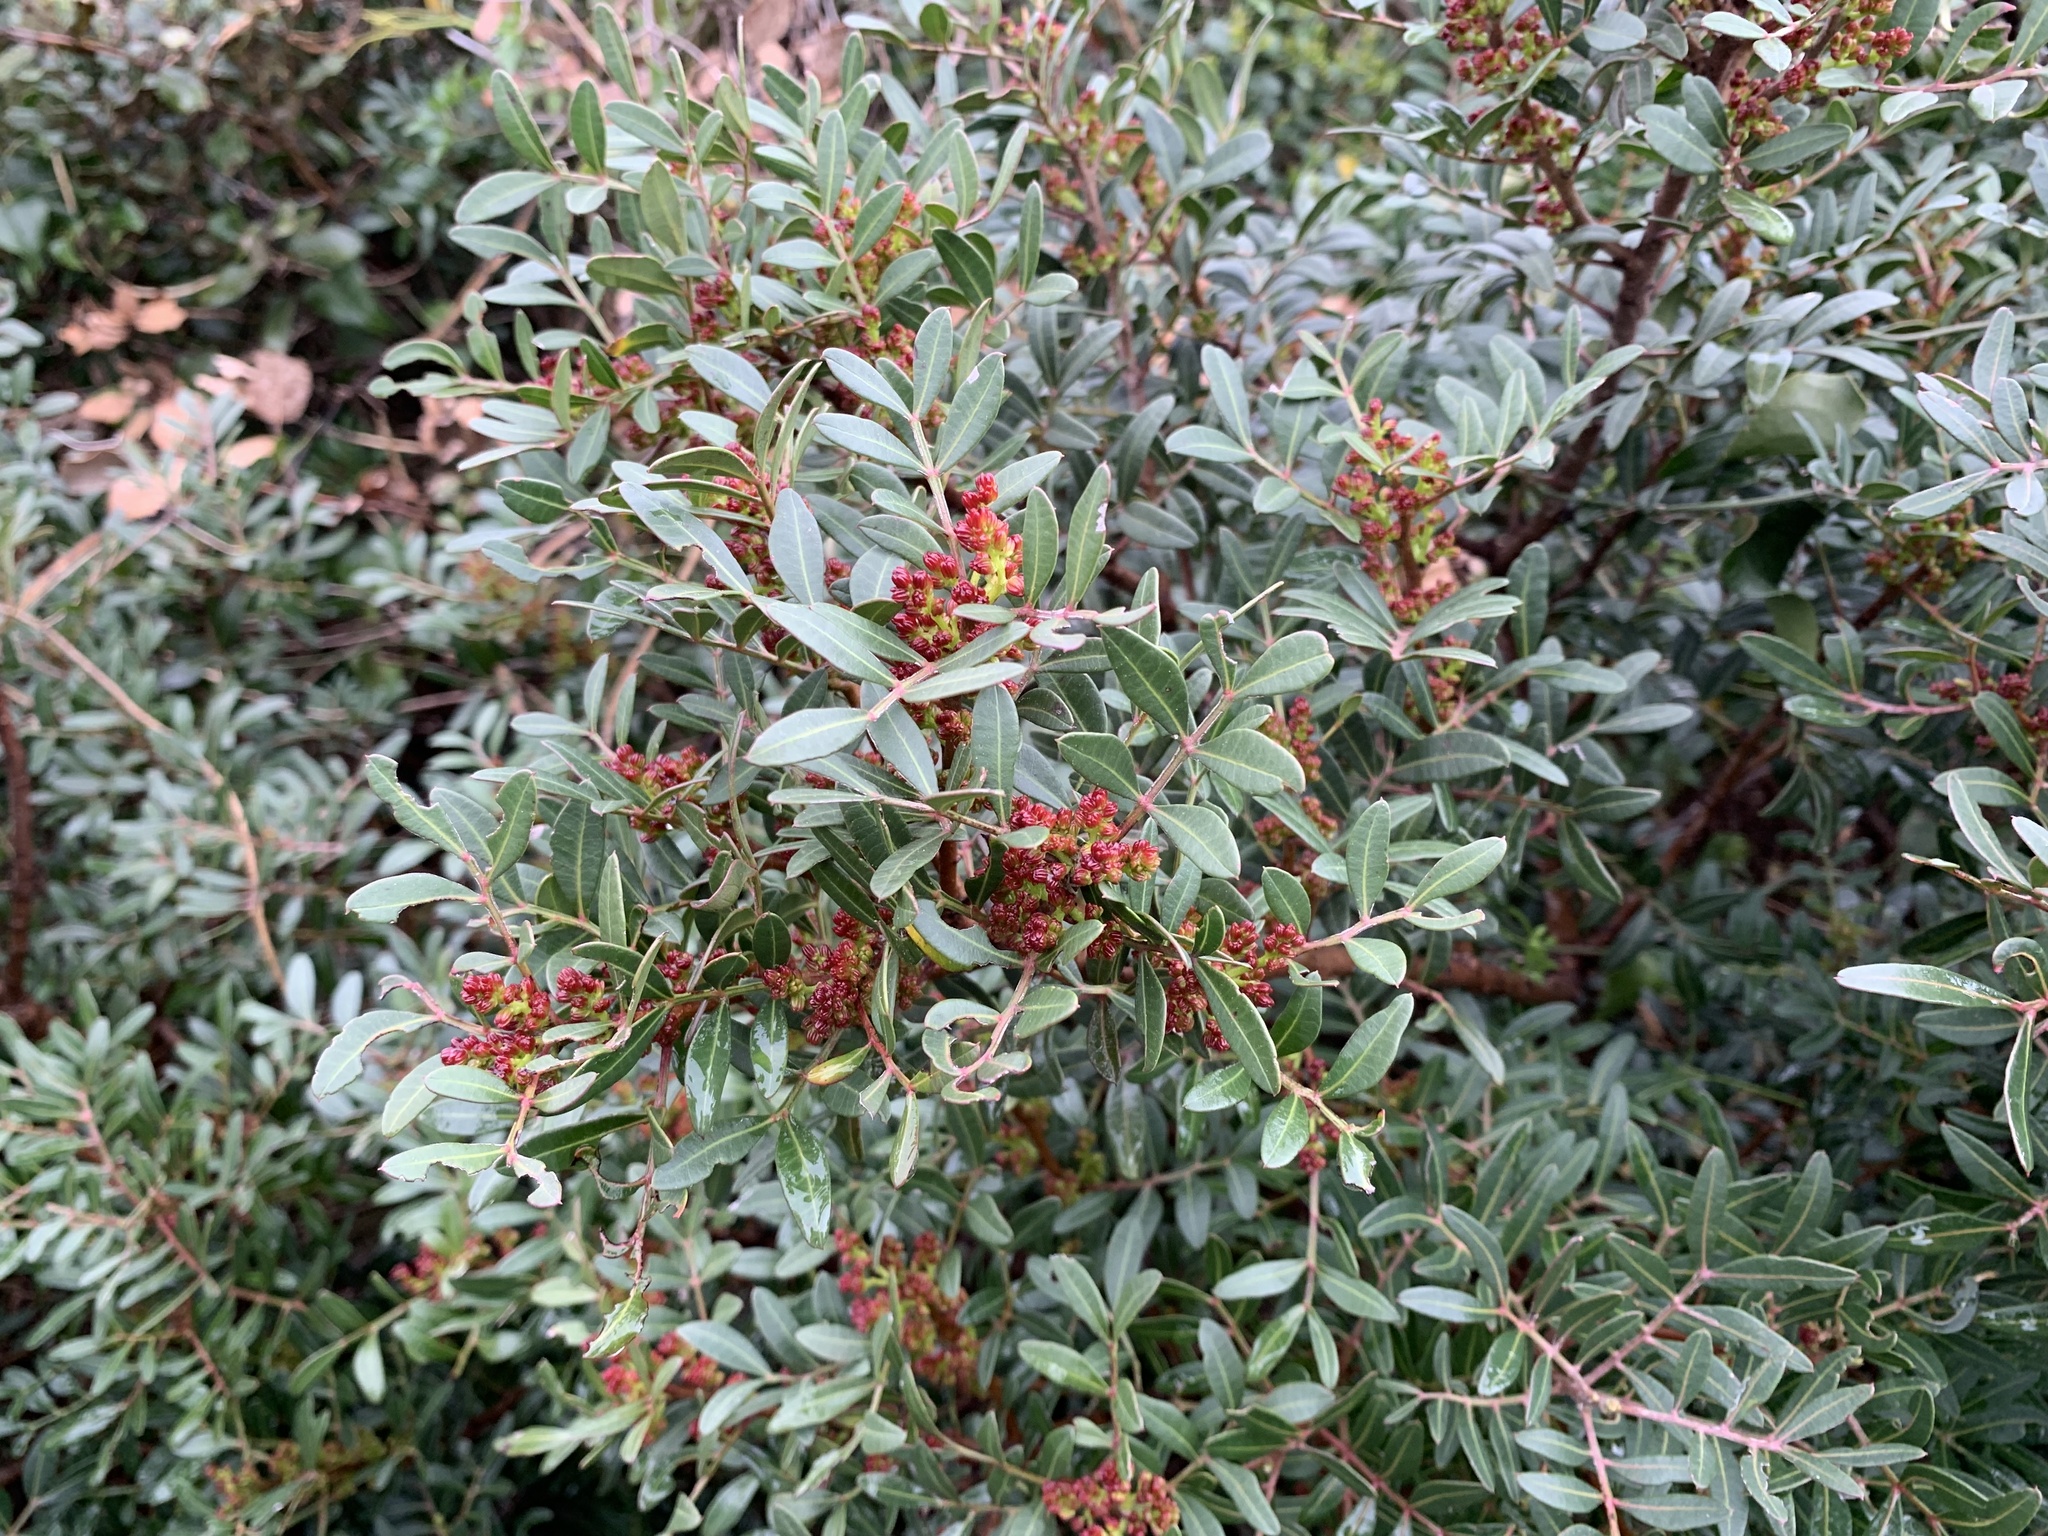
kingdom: Plantae
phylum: Tracheophyta
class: Magnoliopsida
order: Sapindales
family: Anacardiaceae
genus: Pistacia
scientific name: Pistacia lentiscus
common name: Lentisk
